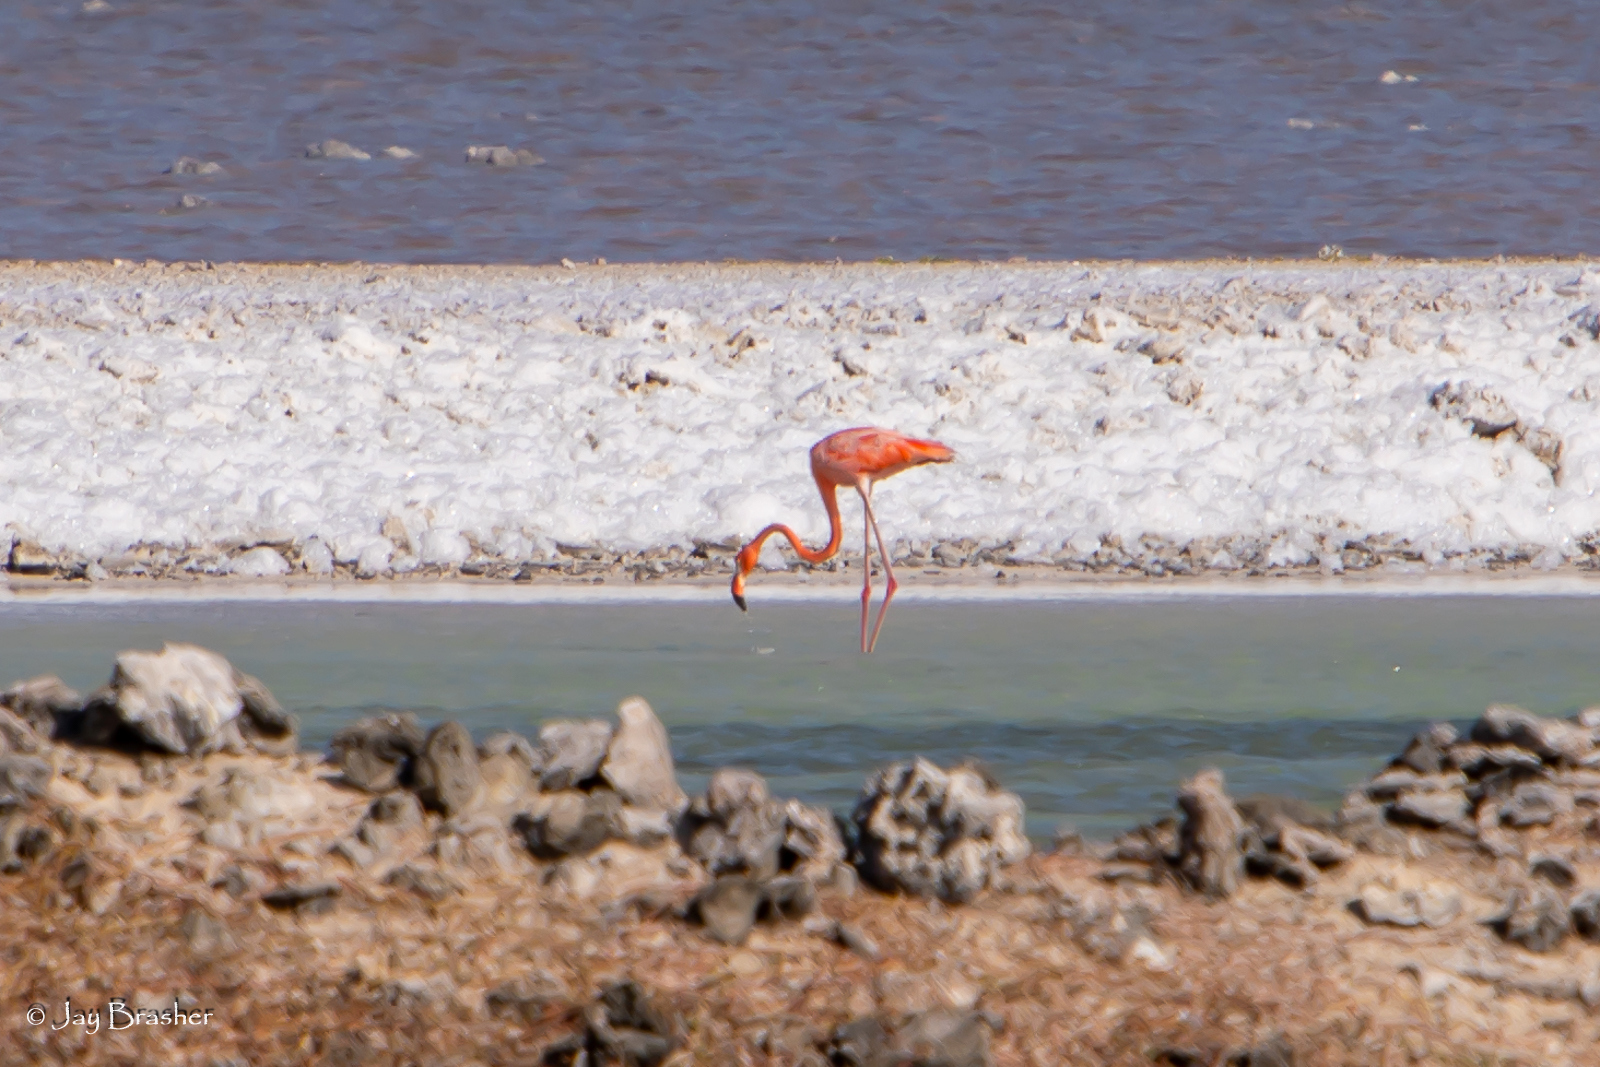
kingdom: Animalia
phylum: Chordata
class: Aves
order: Phoenicopteriformes
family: Phoenicopteridae
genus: Phoenicopterus
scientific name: Phoenicopterus ruber
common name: American flamingo
